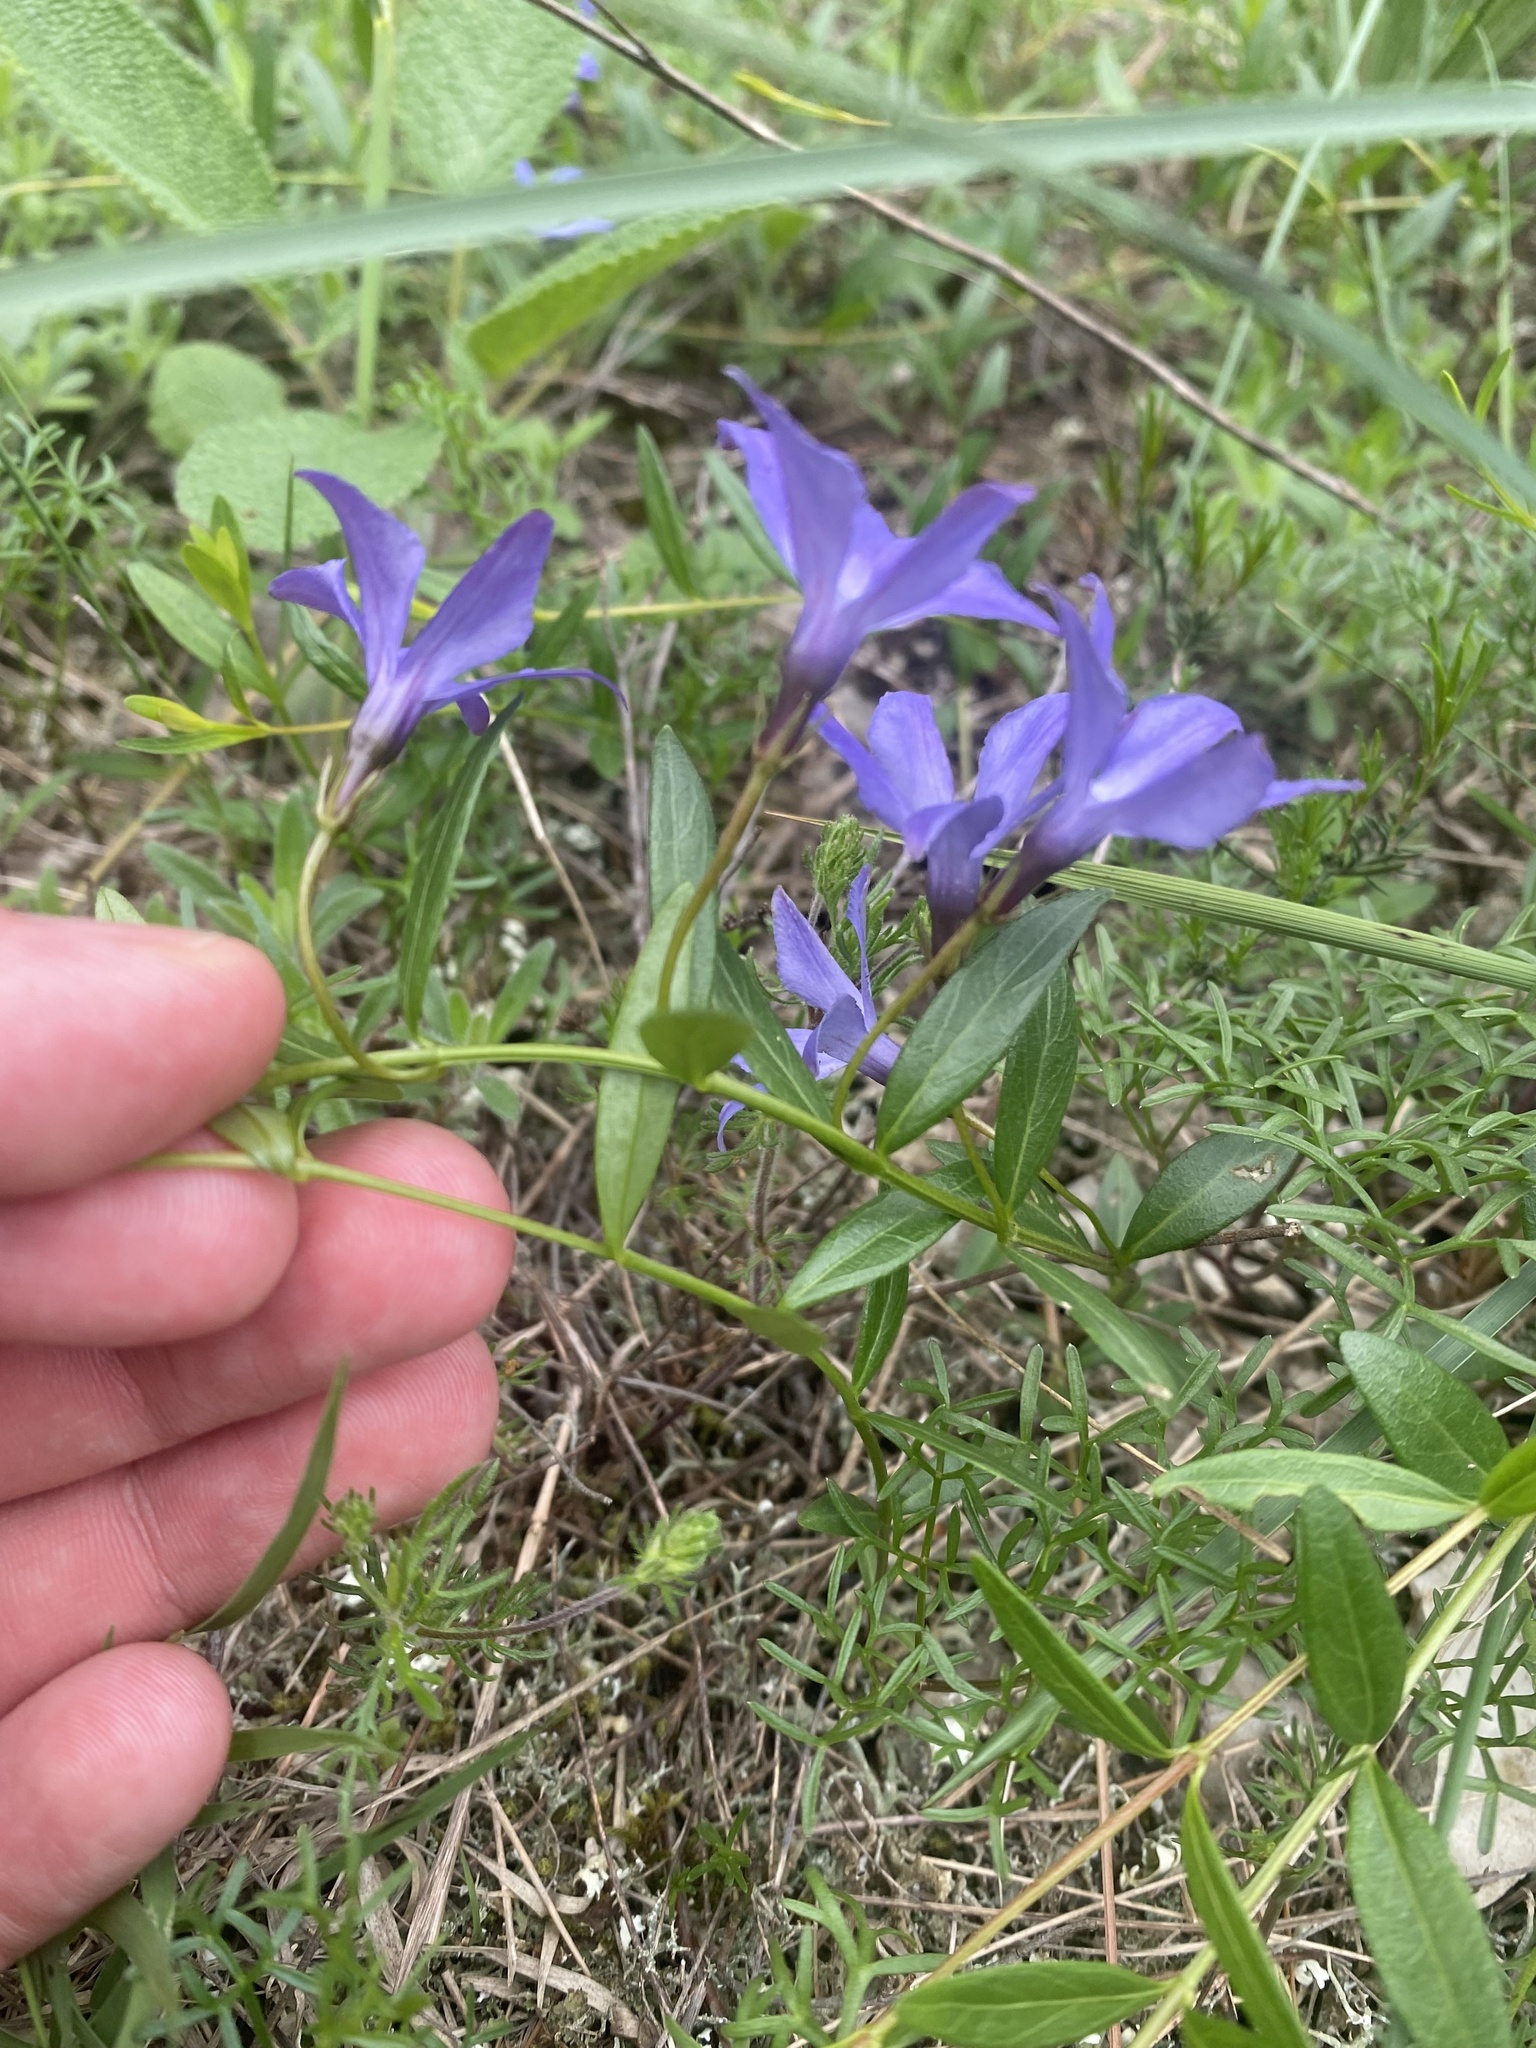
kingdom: Plantae
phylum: Tracheophyta
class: Magnoliopsida
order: Gentianales
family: Apocynaceae
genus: Vinca
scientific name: Vinca herbacea
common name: Herbaceous periwinkle
